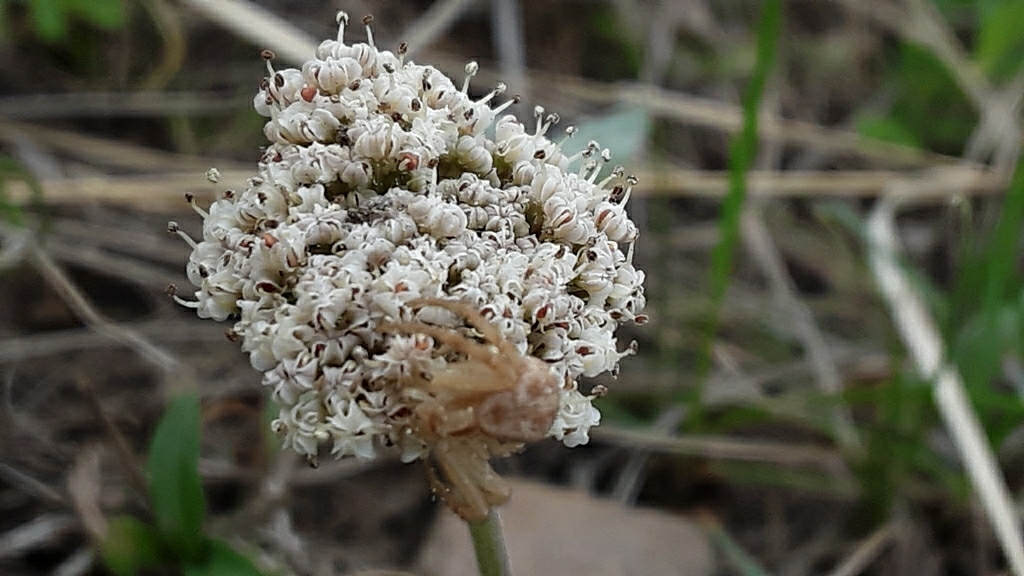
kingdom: Plantae
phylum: Tracheophyta
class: Magnoliopsida
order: Apiales
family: Apiaceae
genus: Lomatium
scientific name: Lomatium orientale
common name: Eastern cous
